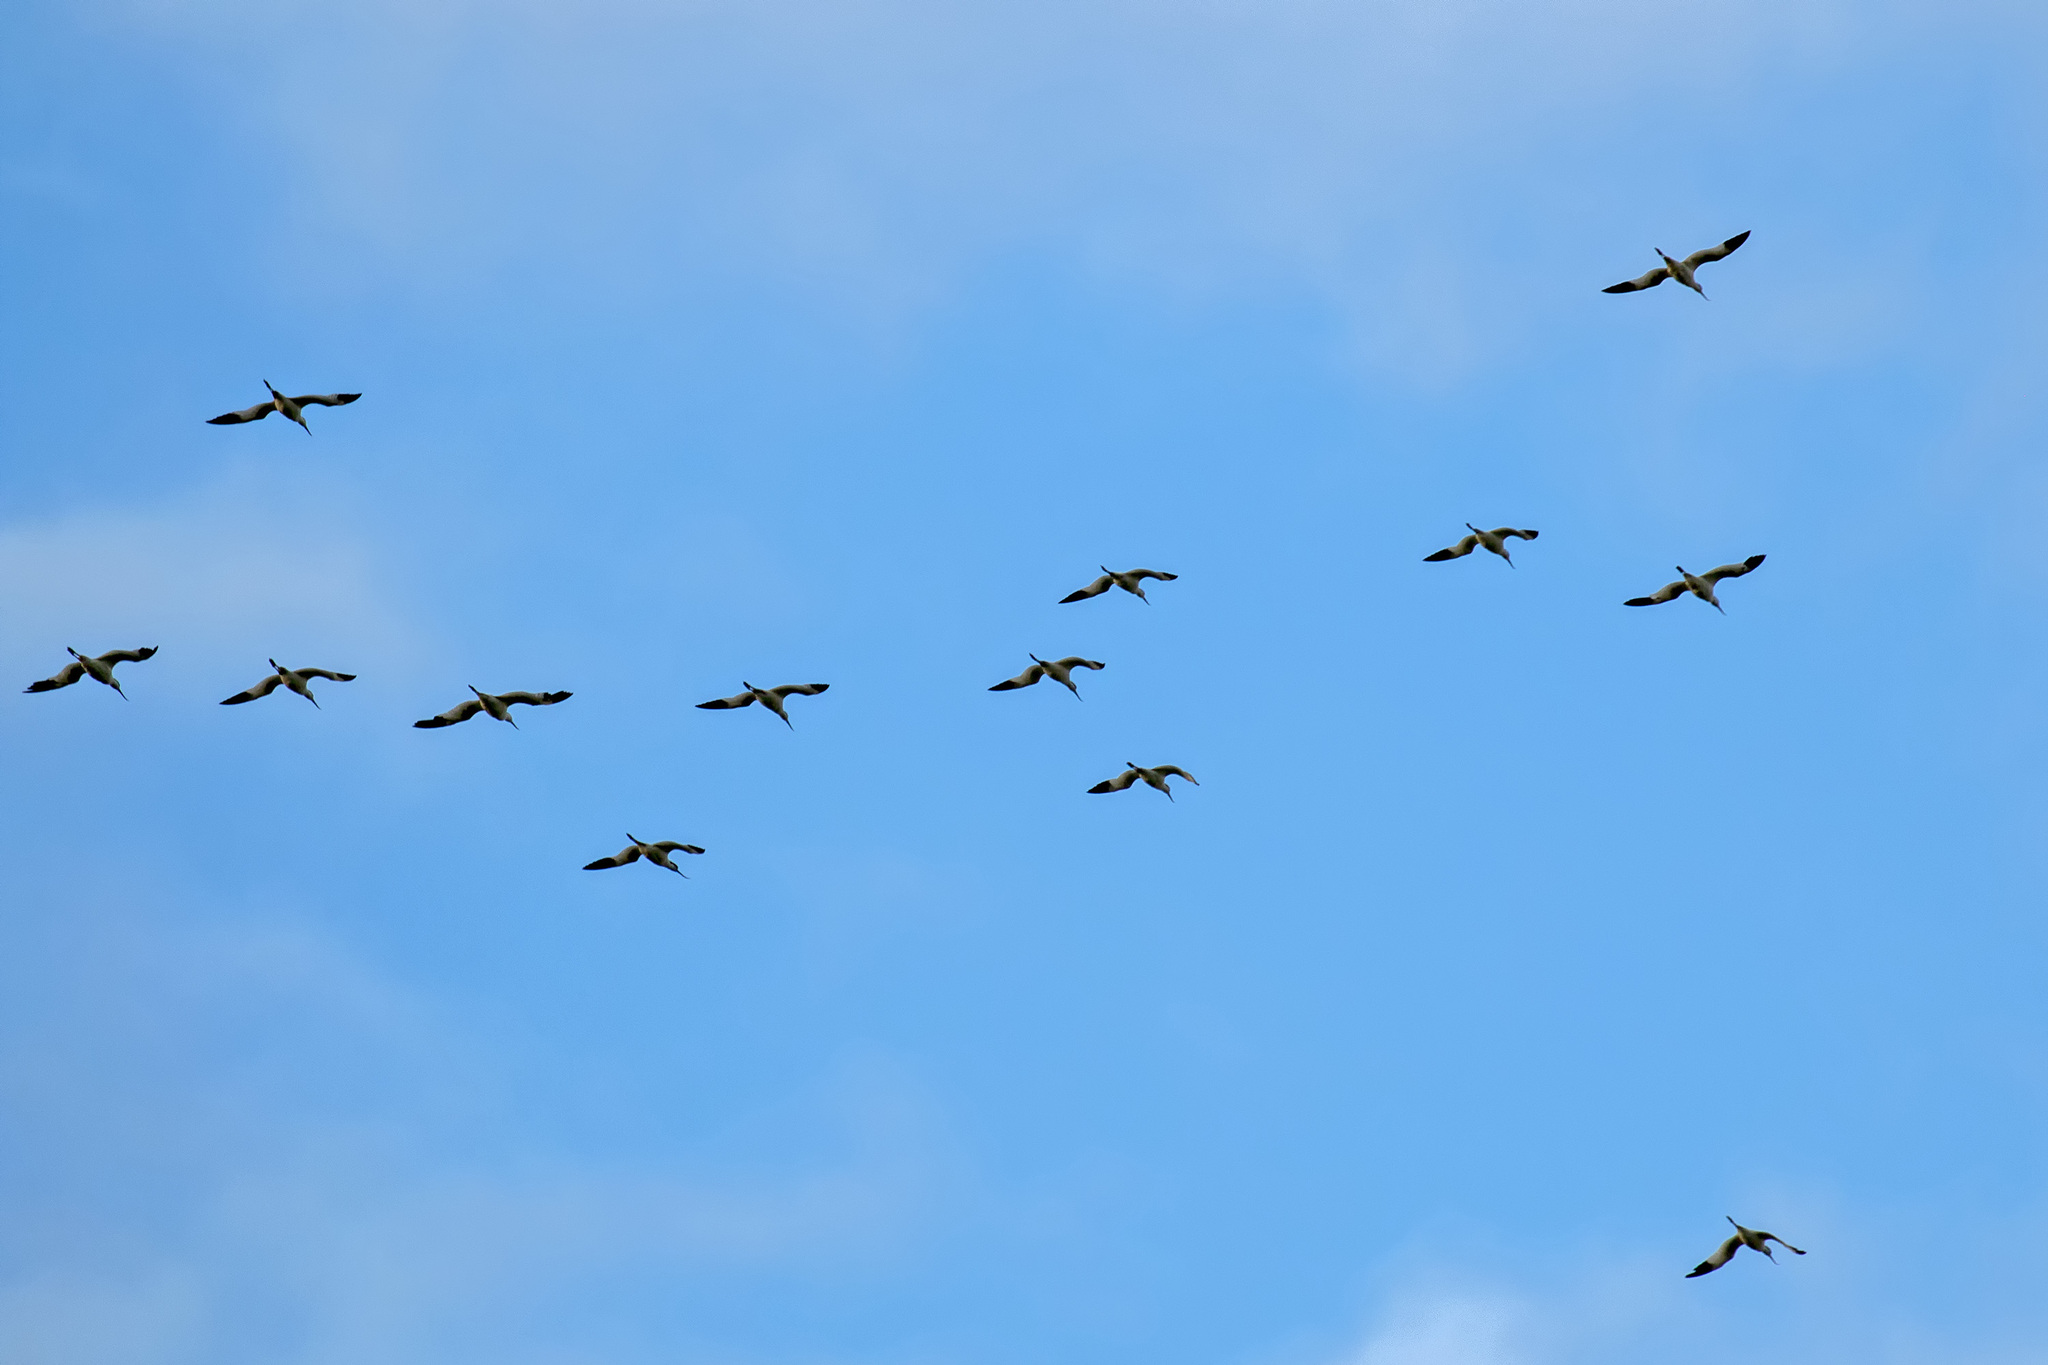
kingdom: Animalia
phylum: Chordata
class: Aves
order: Charadriiformes
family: Recurvirostridae
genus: Recurvirostra
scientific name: Recurvirostra avosetta
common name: Pied avocet
